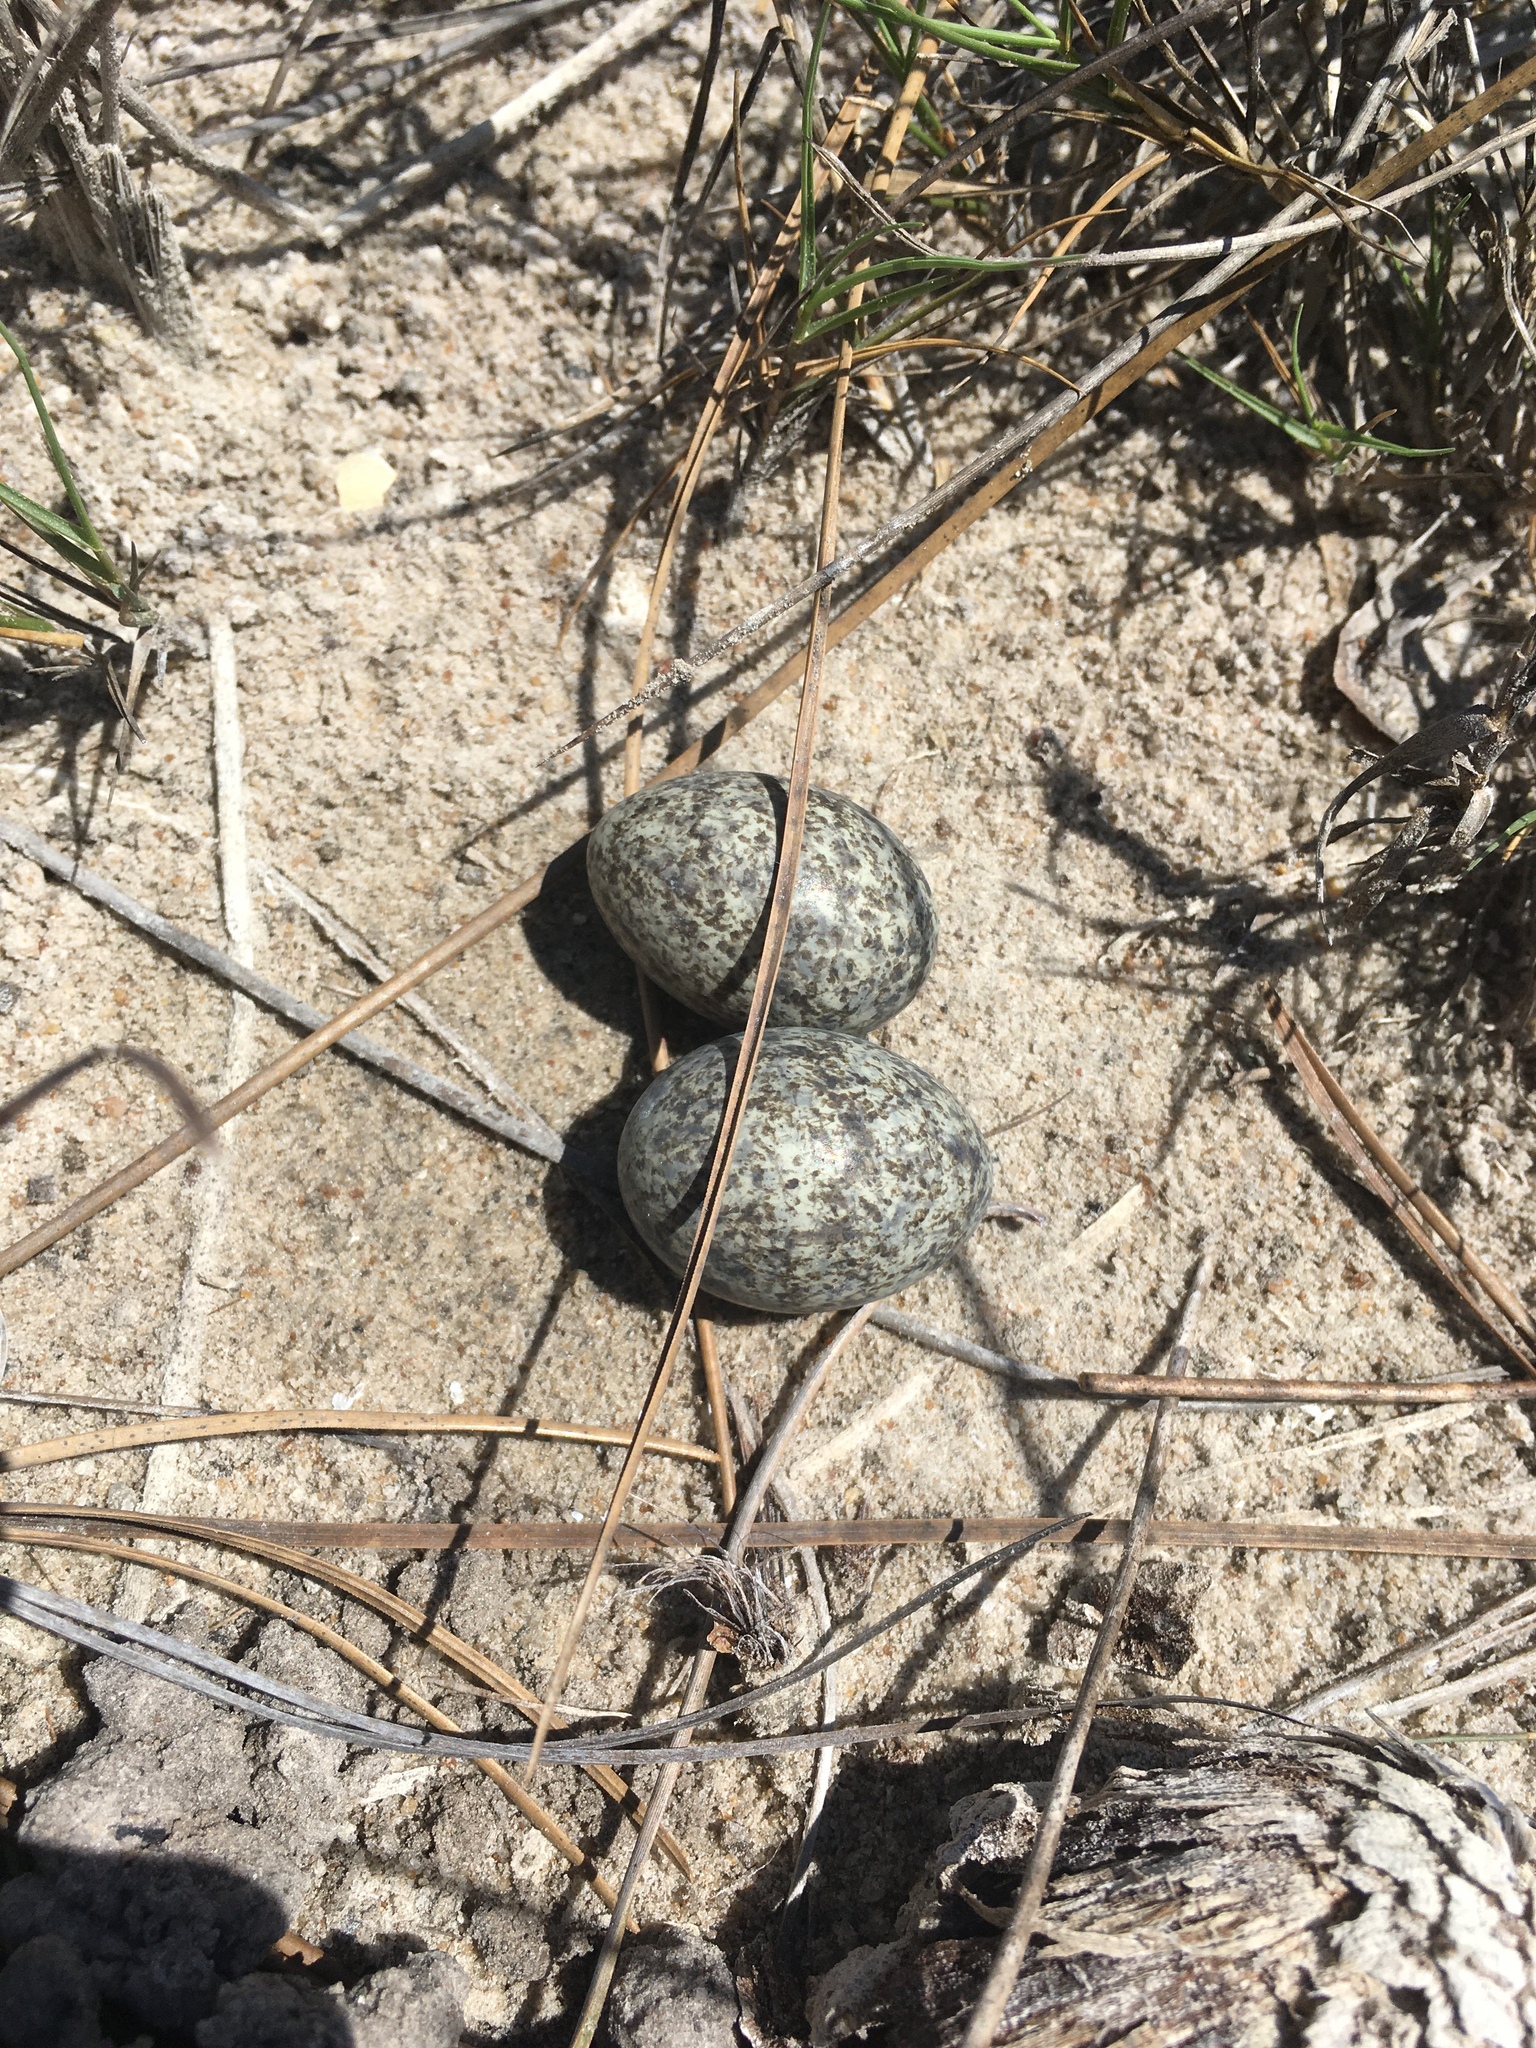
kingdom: Animalia
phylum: Chordata
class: Aves
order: Caprimulgiformes
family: Caprimulgidae
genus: Chordeiles
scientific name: Chordeiles minor
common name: Common nighthawk
